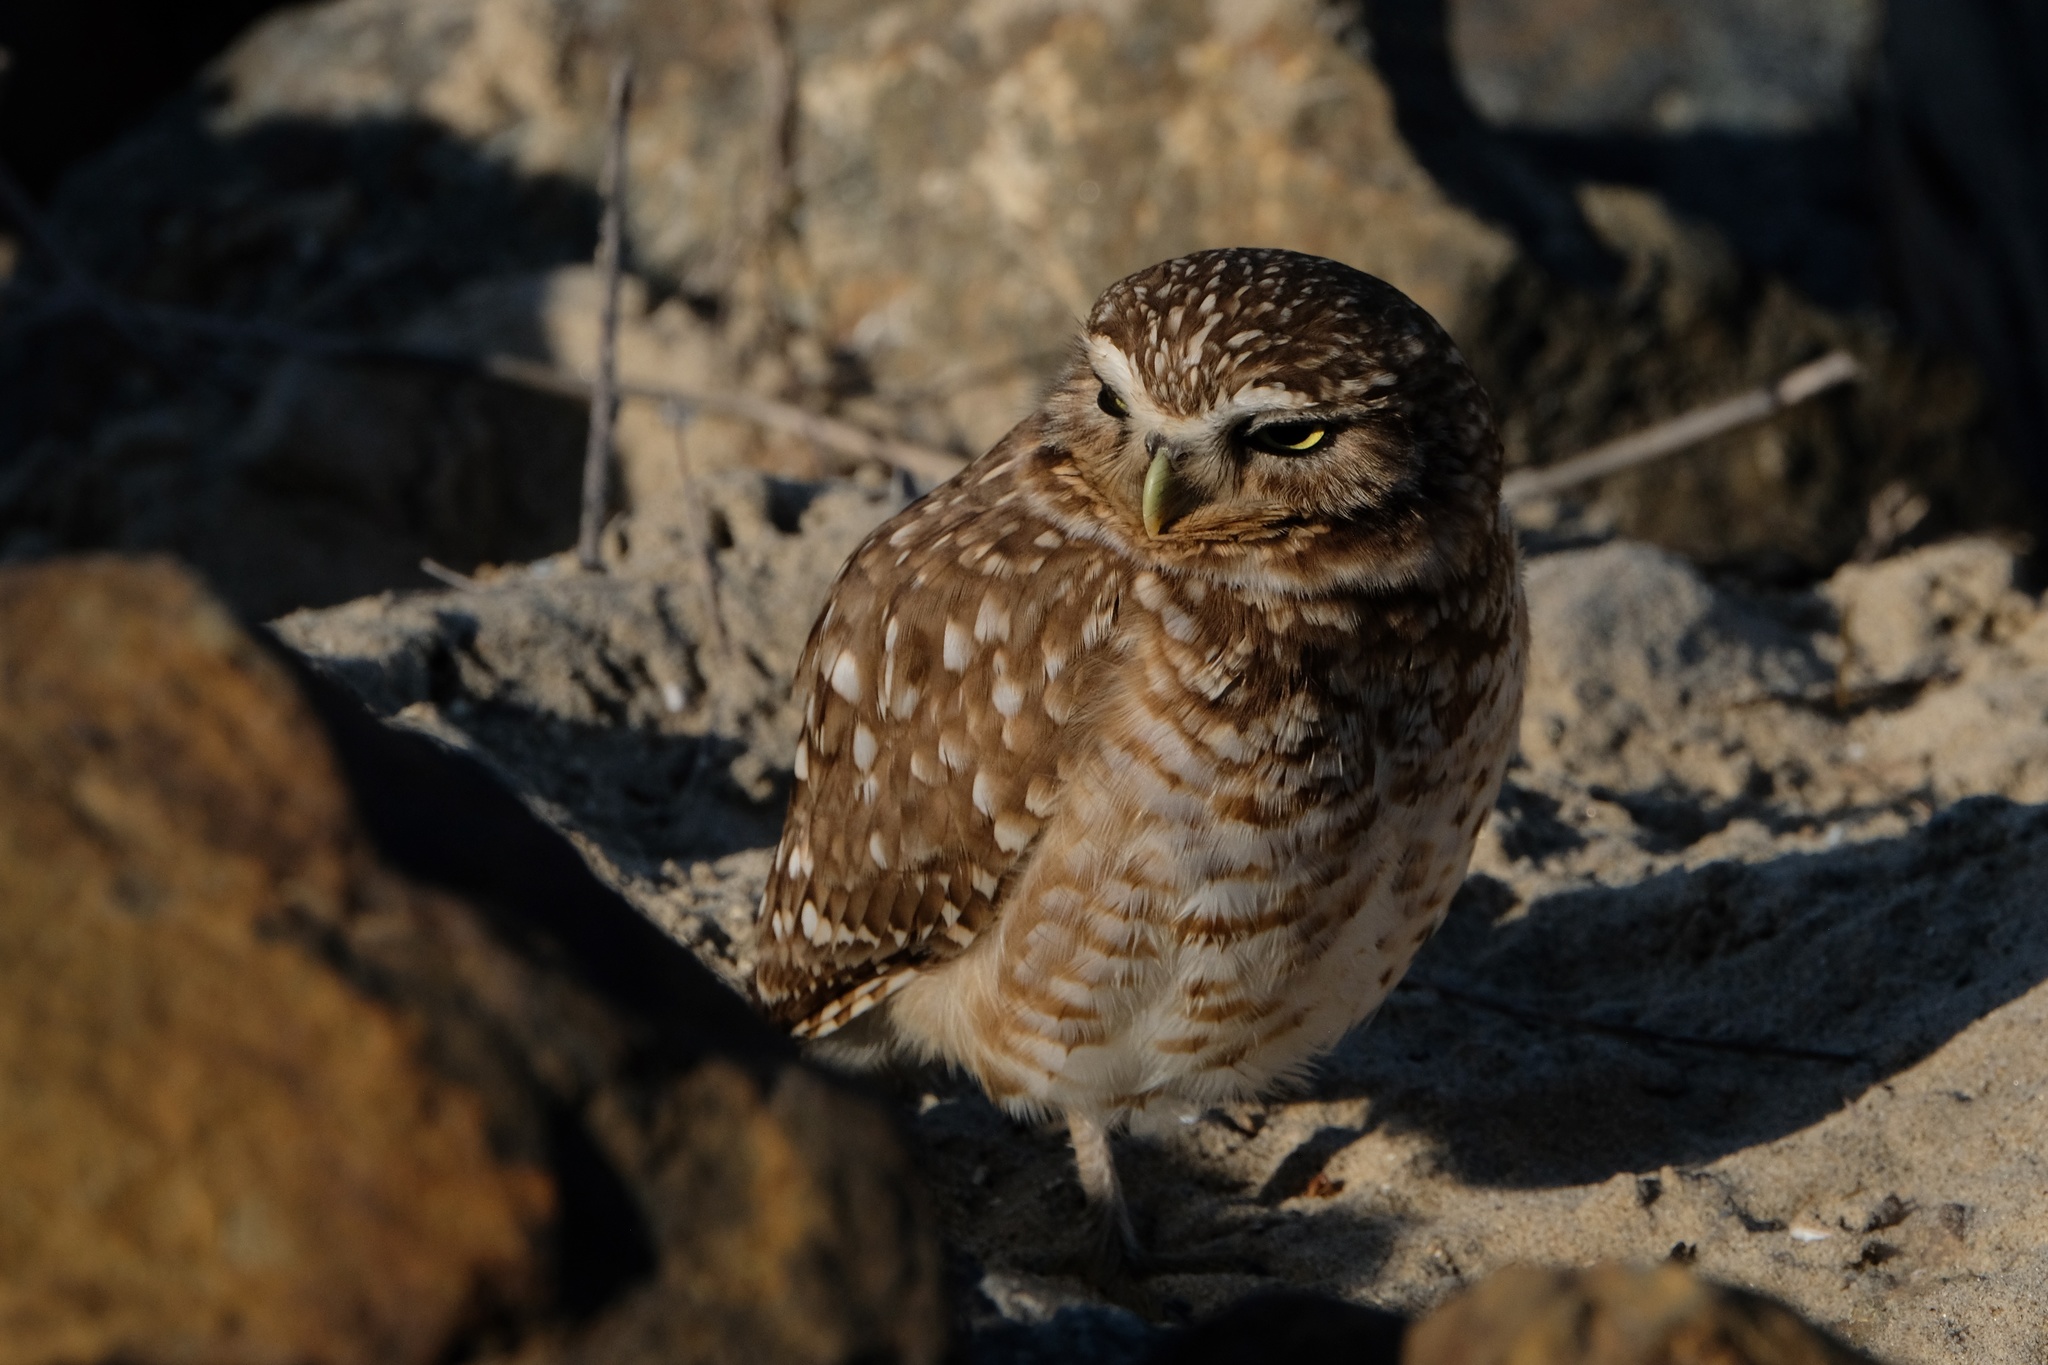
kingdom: Animalia
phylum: Chordata
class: Aves
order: Strigiformes
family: Strigidae
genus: Athene
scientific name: Athene cunicularia
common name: Burrowing owl
